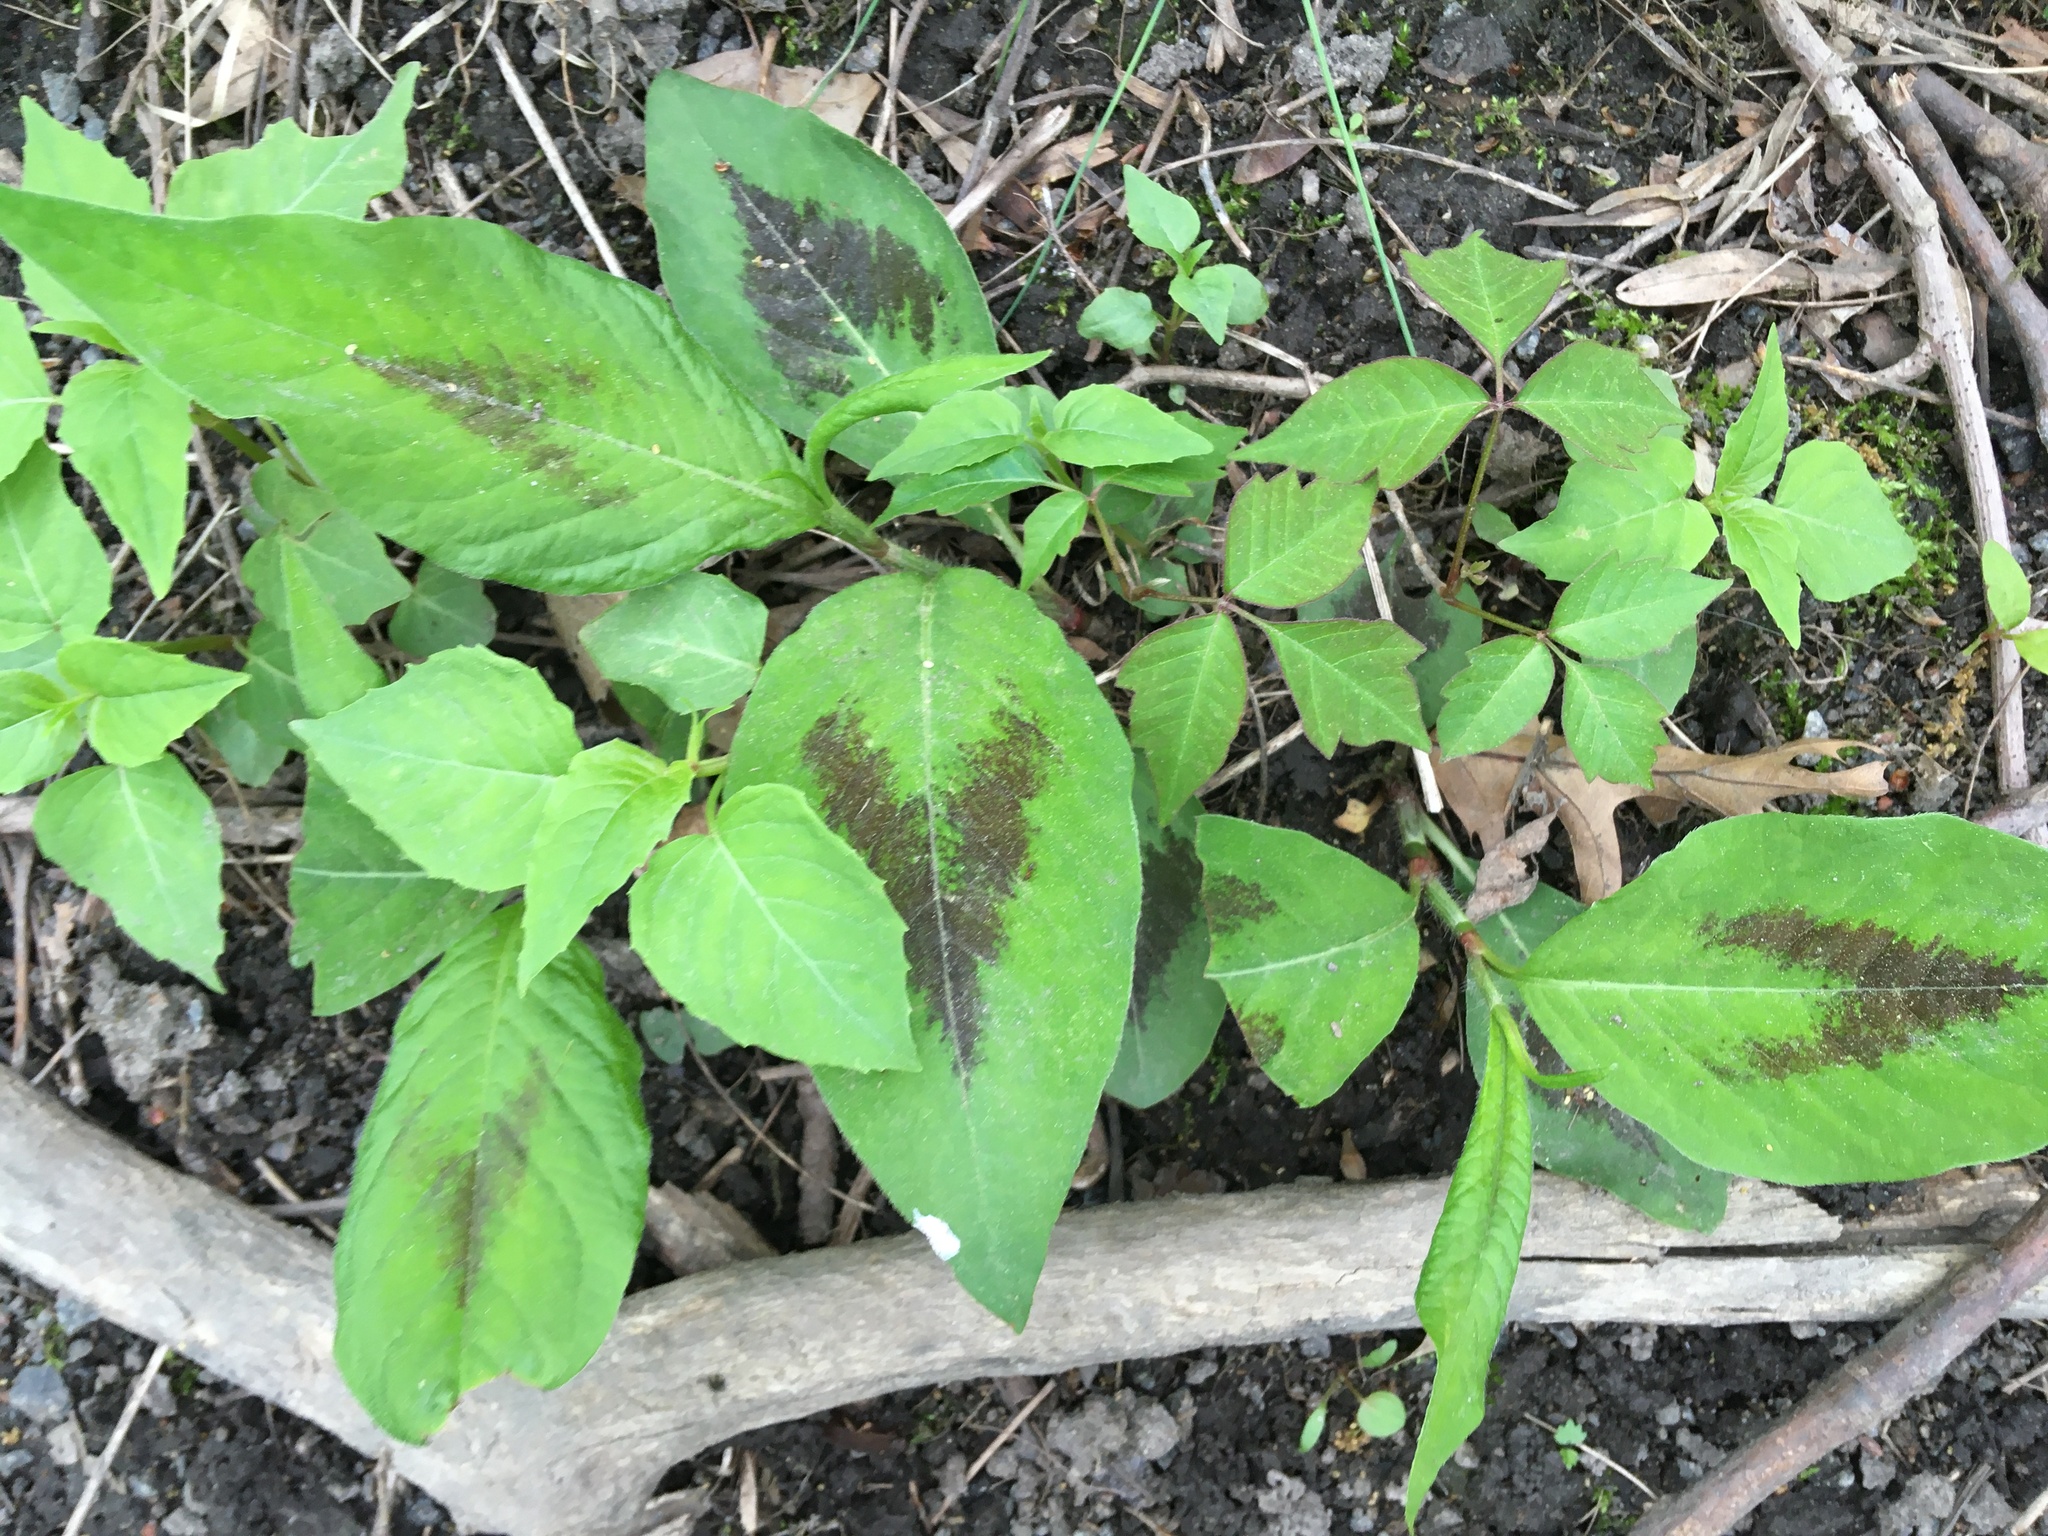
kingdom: Plantae
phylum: Tracheophyta
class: Magnoliopsida
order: Caryophyllales
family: Polygonaceae
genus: Persicaria
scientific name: Persicaria virginiana
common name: Jumpseed
